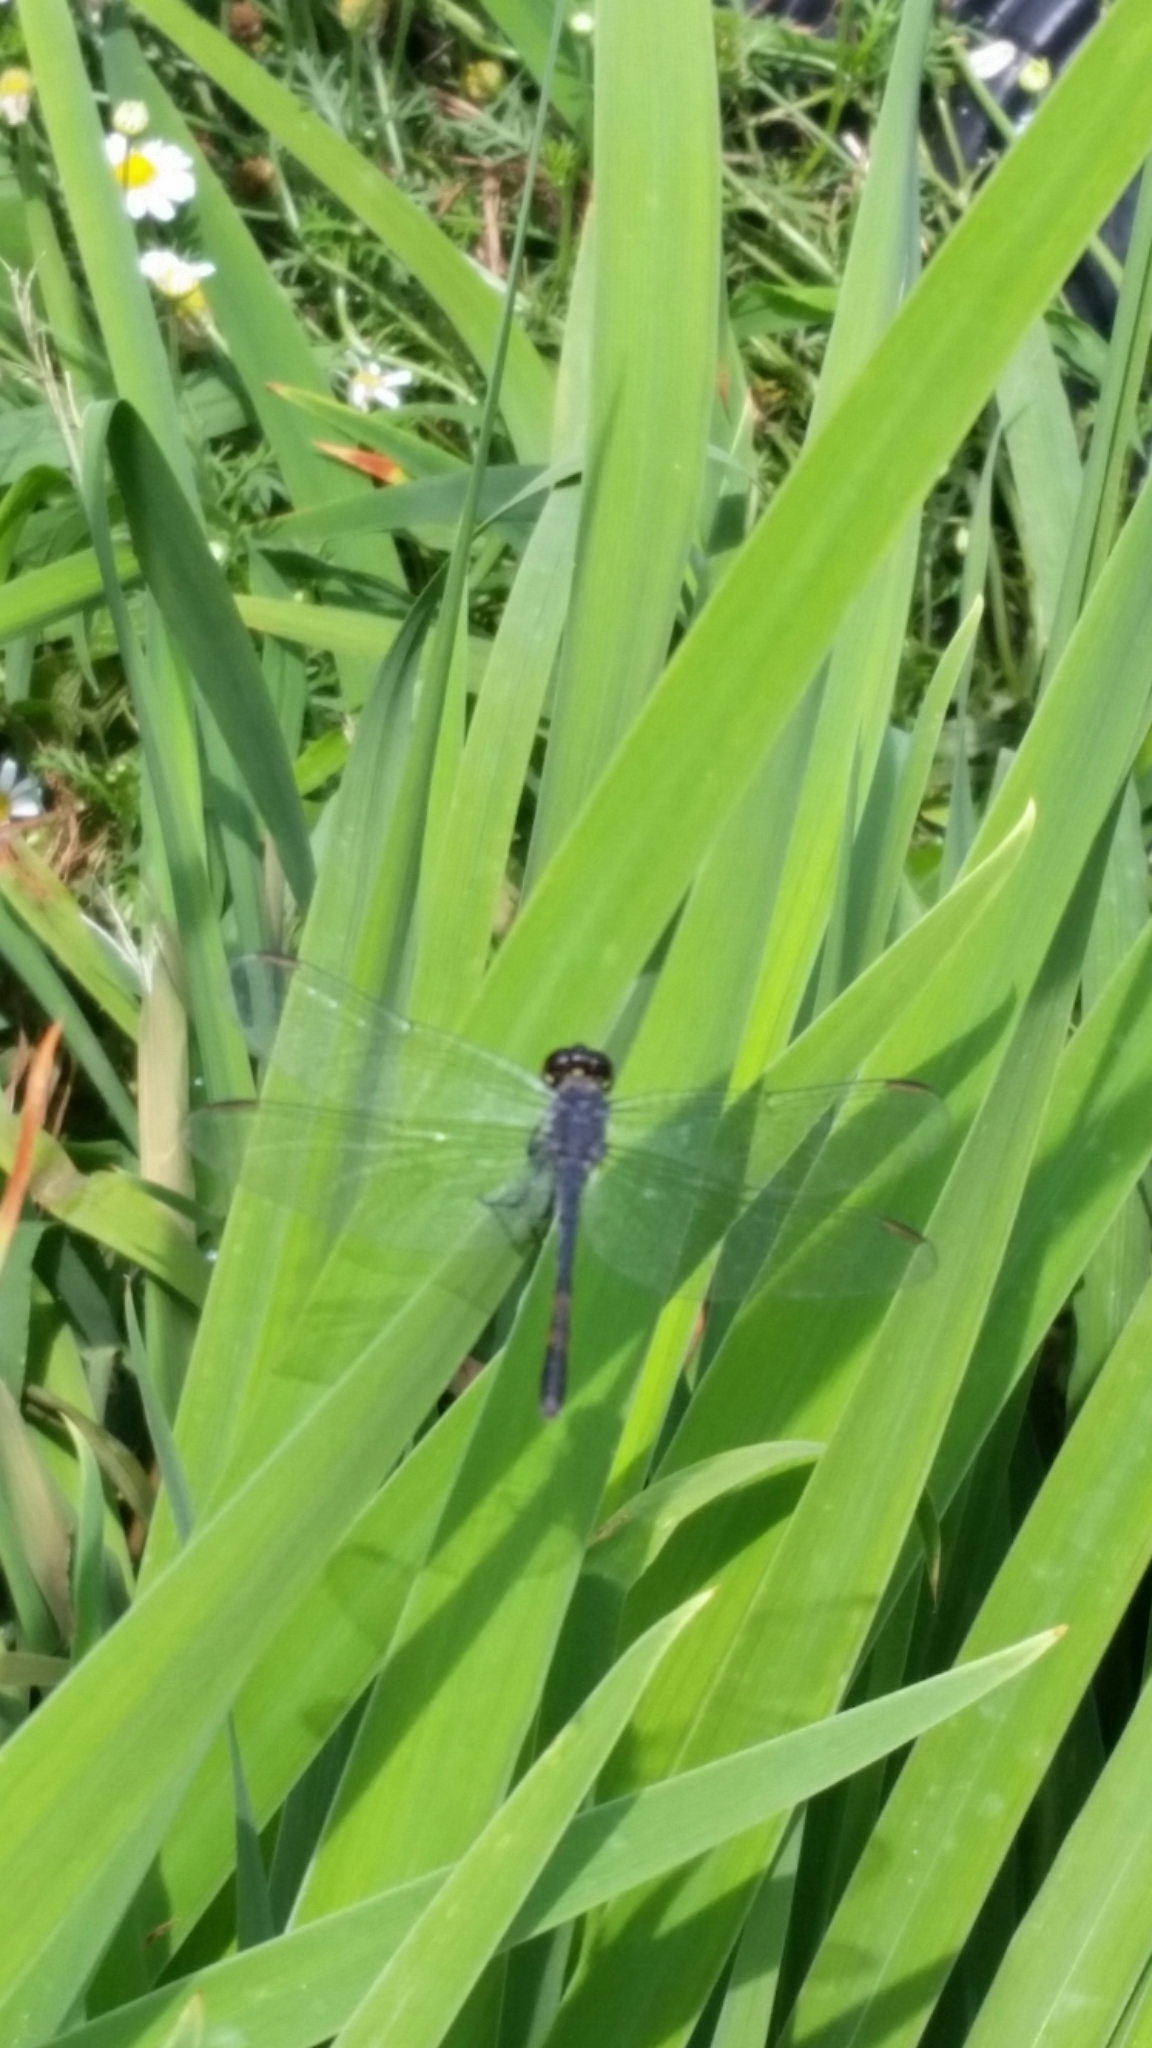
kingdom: Animalia
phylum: Arthropoda
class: Insecta
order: Odonata
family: Libellulidae
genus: Erythrodiplax
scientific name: Erythrodiplax berenice
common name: Seaside dragonlet
